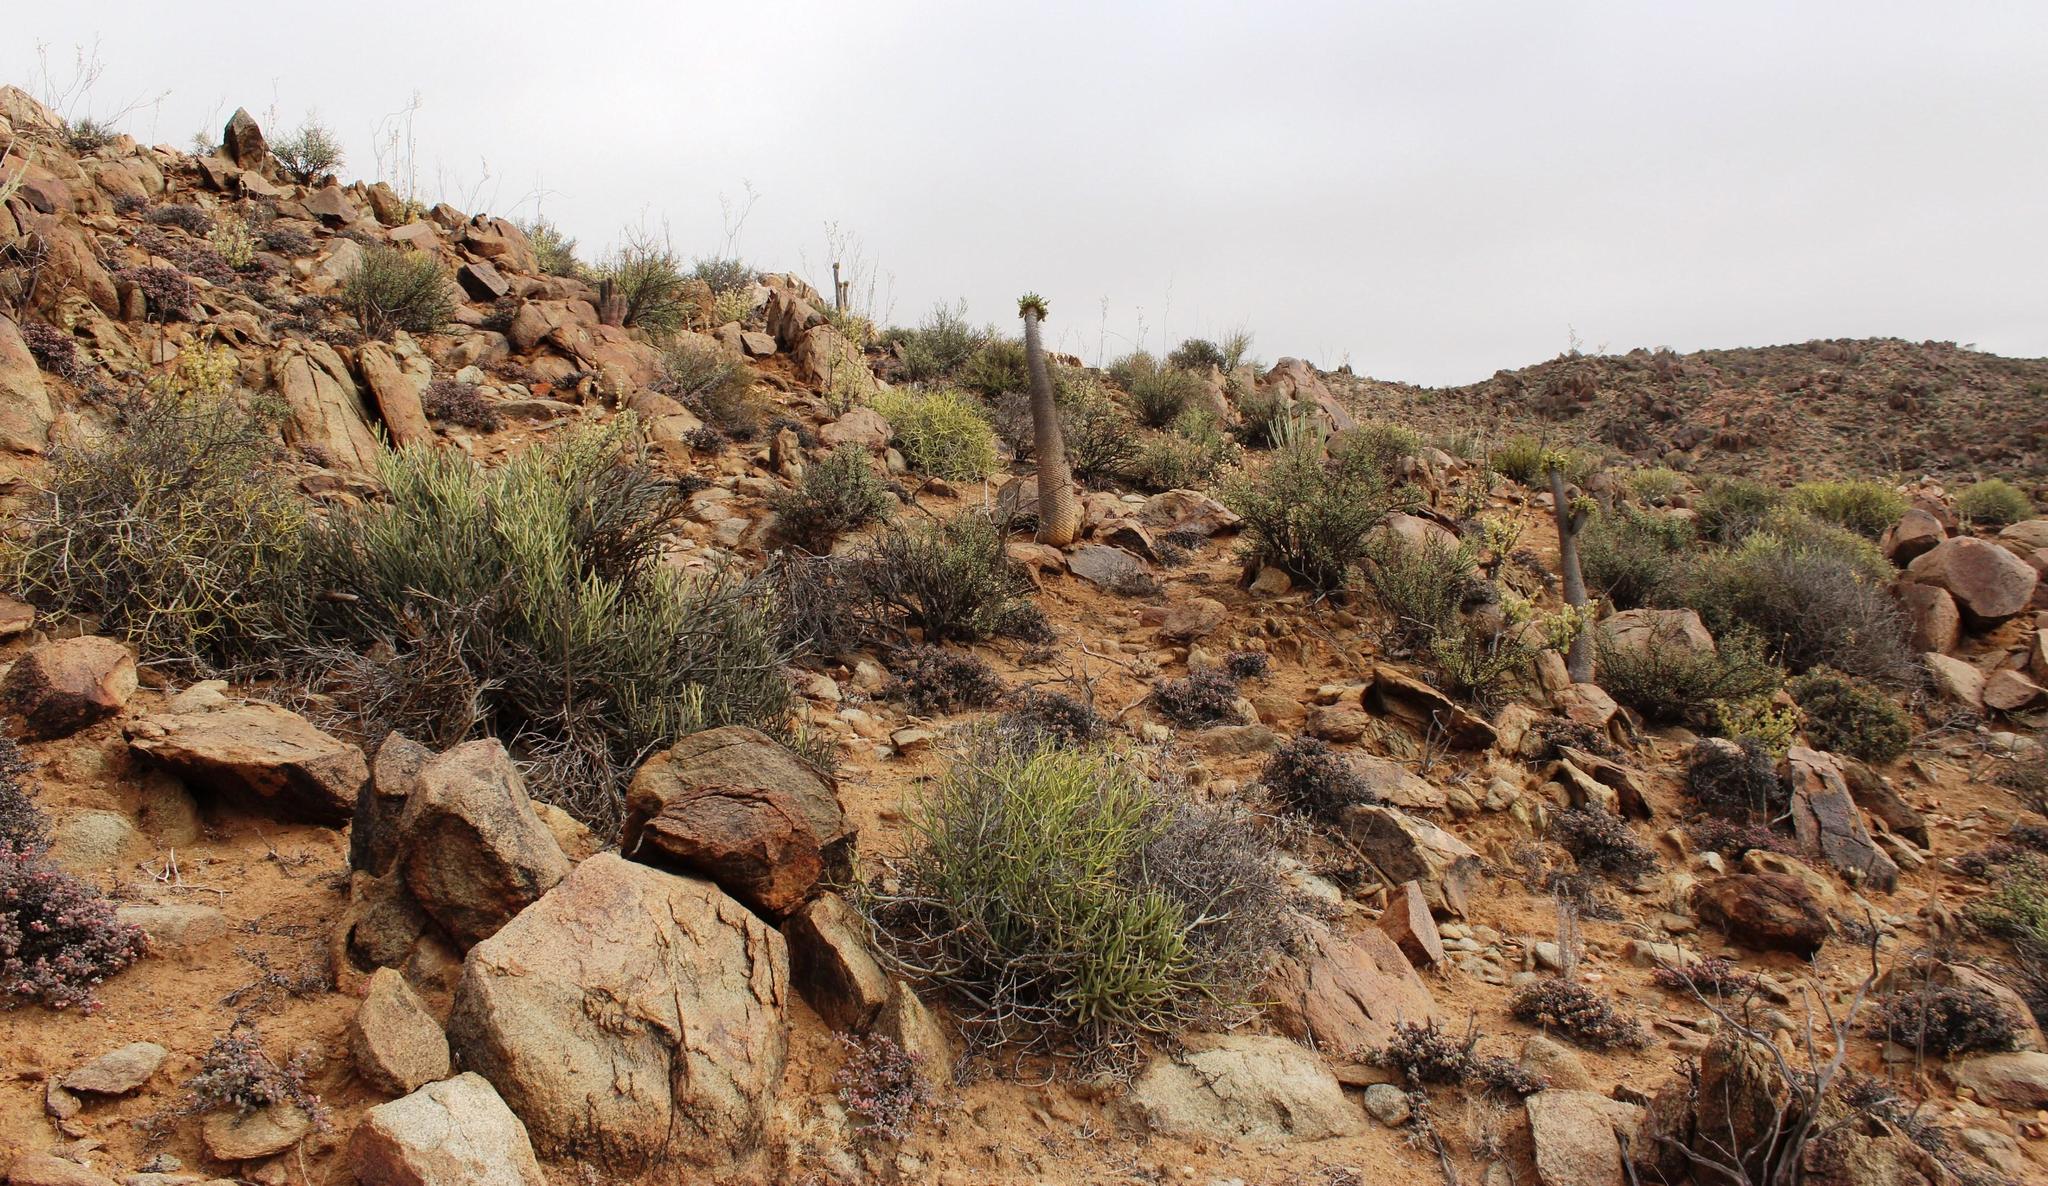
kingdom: Plantae
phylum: Tracheophyta
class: Magnoliopsida
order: Gentianales
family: Apocynaceae
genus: Pachypodium
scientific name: Pachypodium namaquanum
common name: Elephant's trunk
